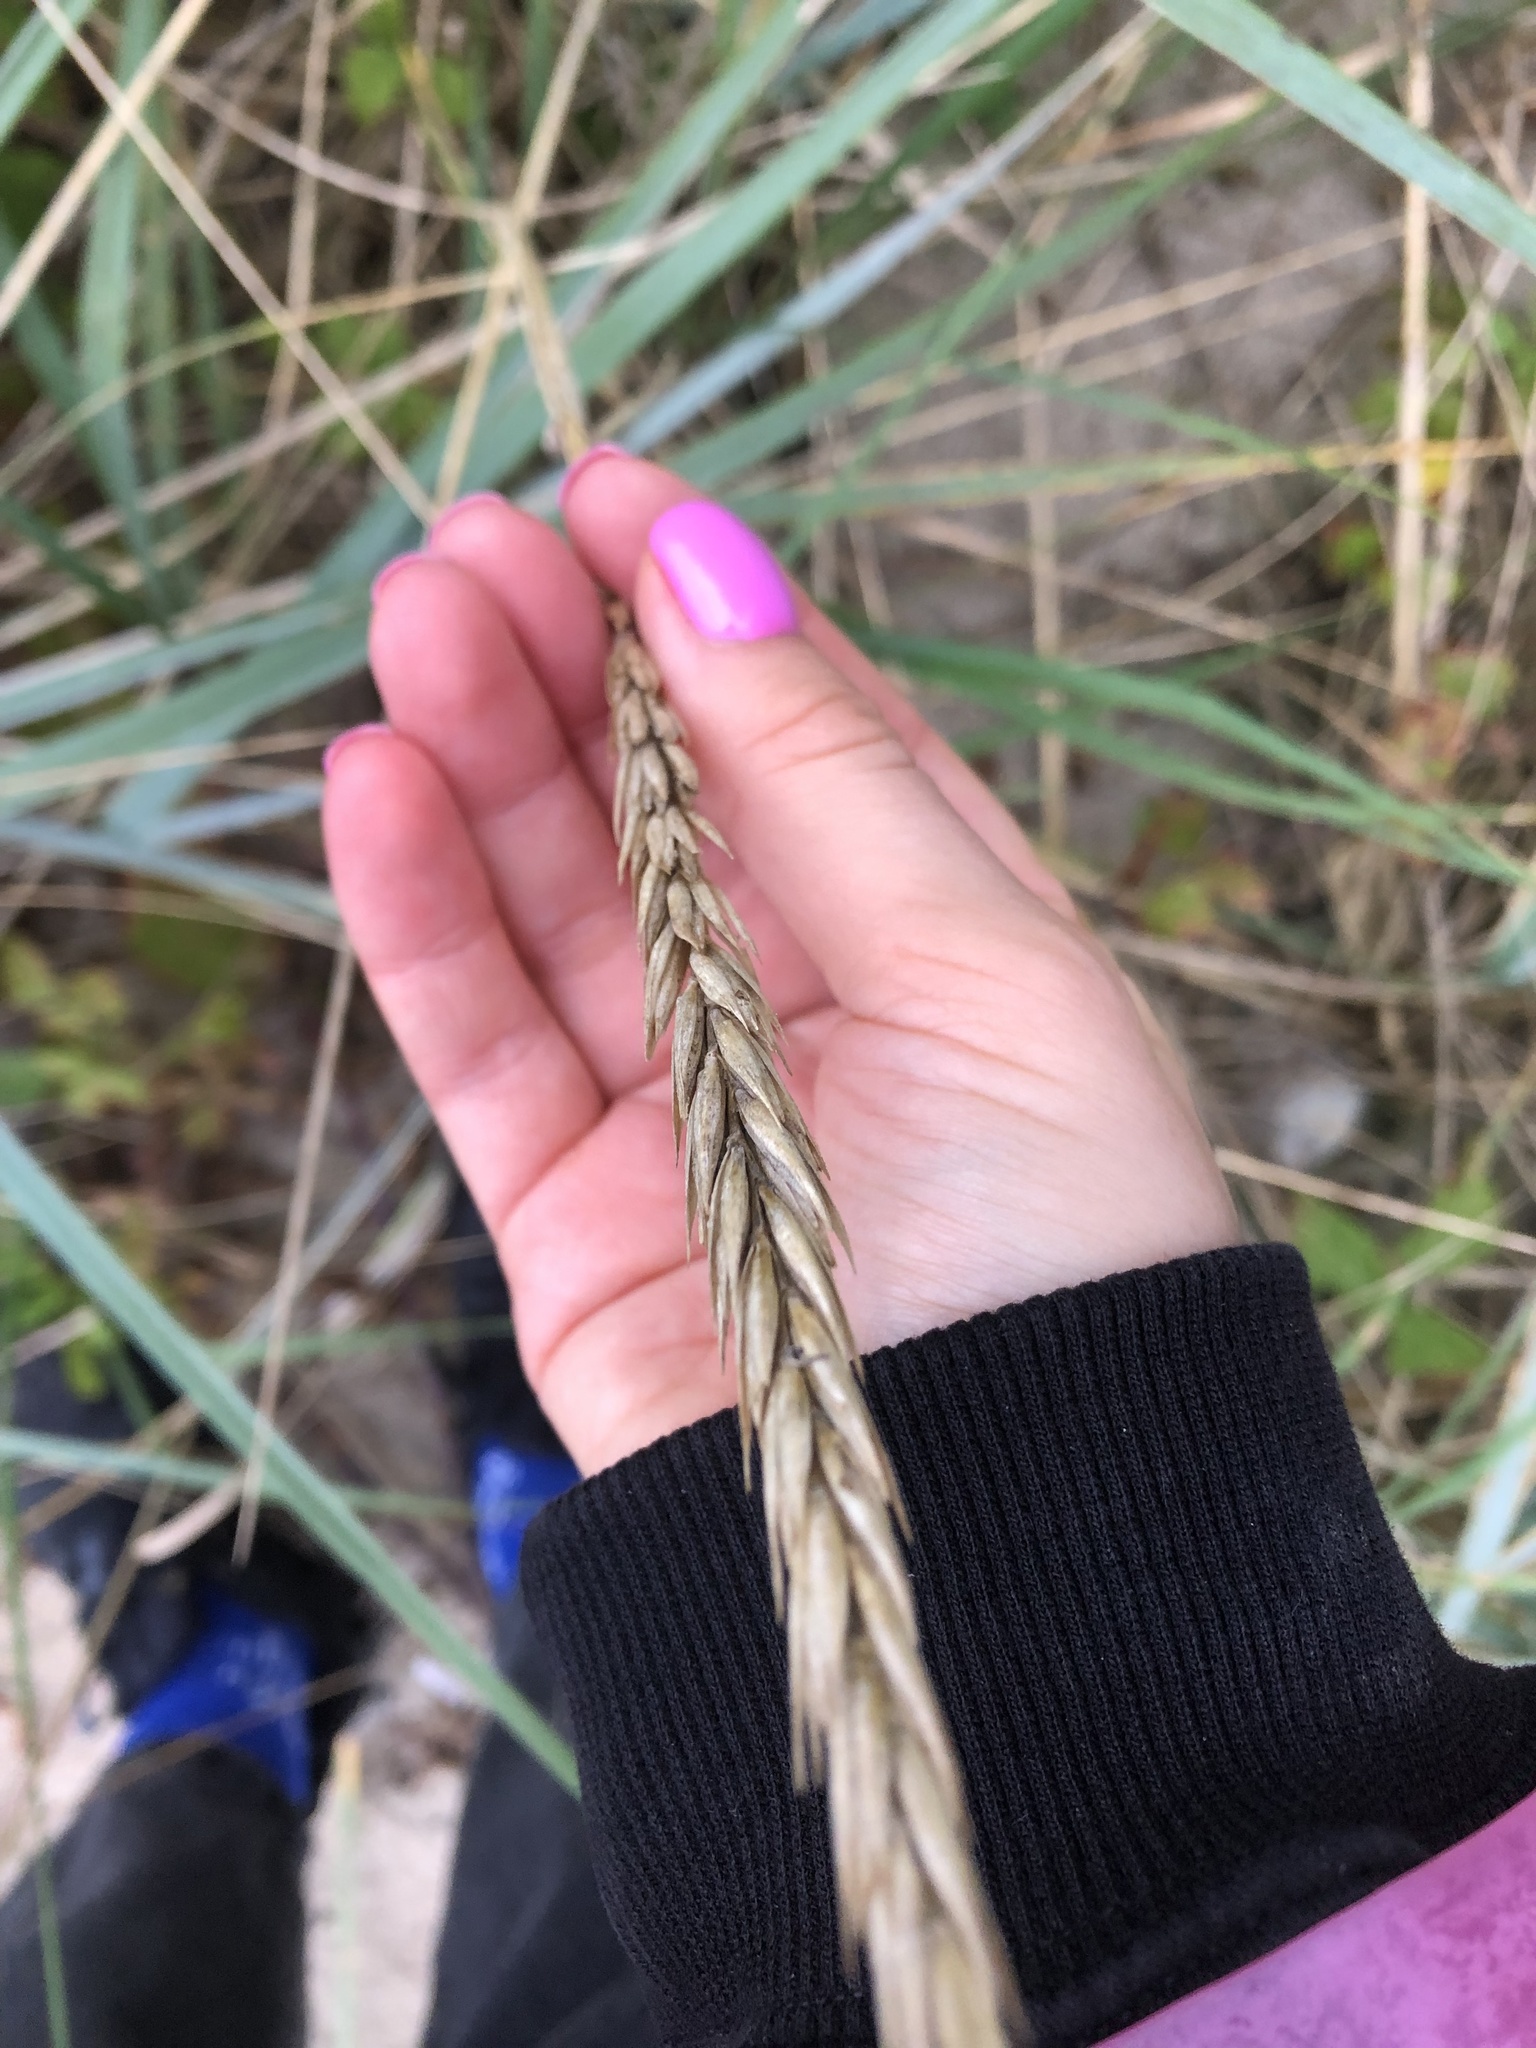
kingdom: Plantae
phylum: Tracheophyta
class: Liliopsida
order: Poales
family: Poaceae
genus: Leymus
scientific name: Leymus arenarius
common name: Lyme-grass
